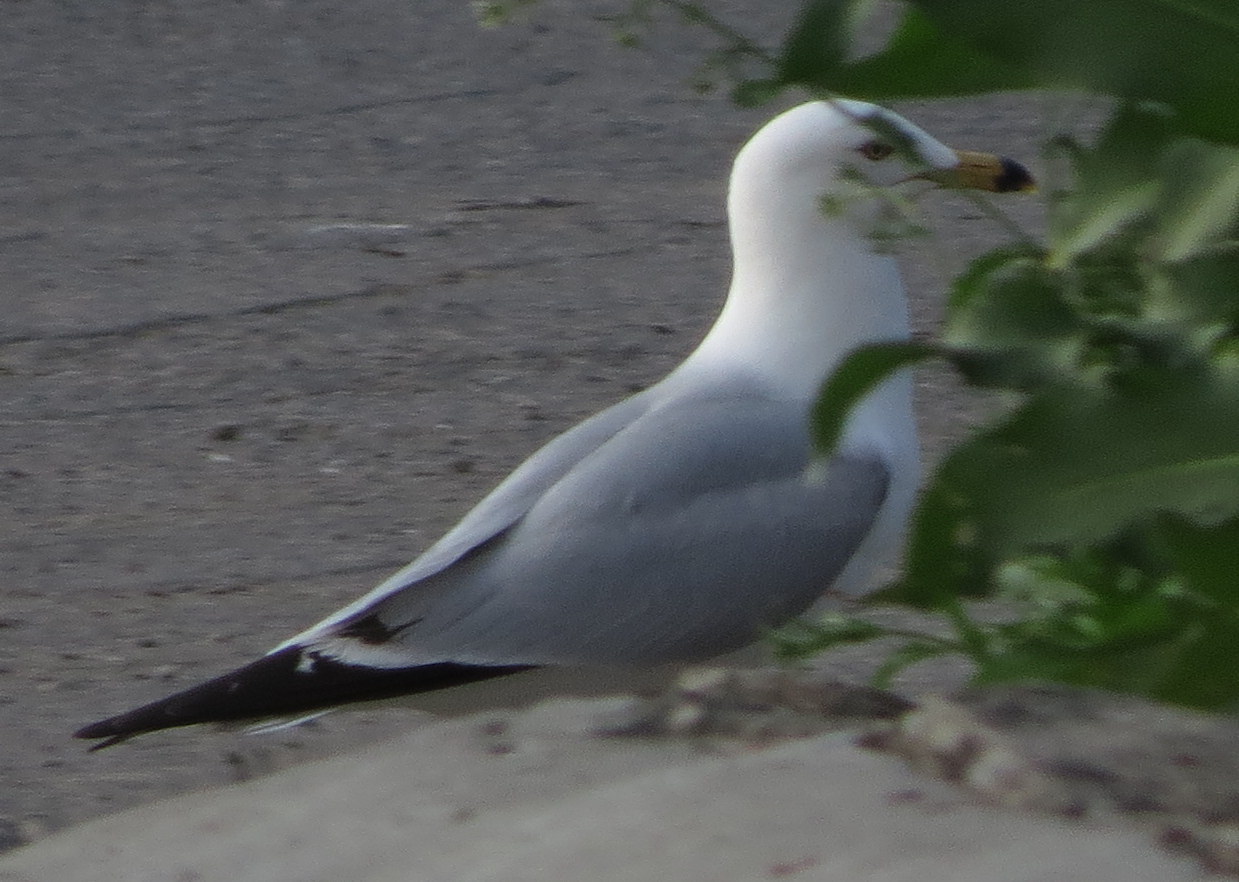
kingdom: Animalia
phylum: Chordata
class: Aves
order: Charadriiformes
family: Laridae
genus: Larus
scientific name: Larus delawarensis
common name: Ring-billed gull
